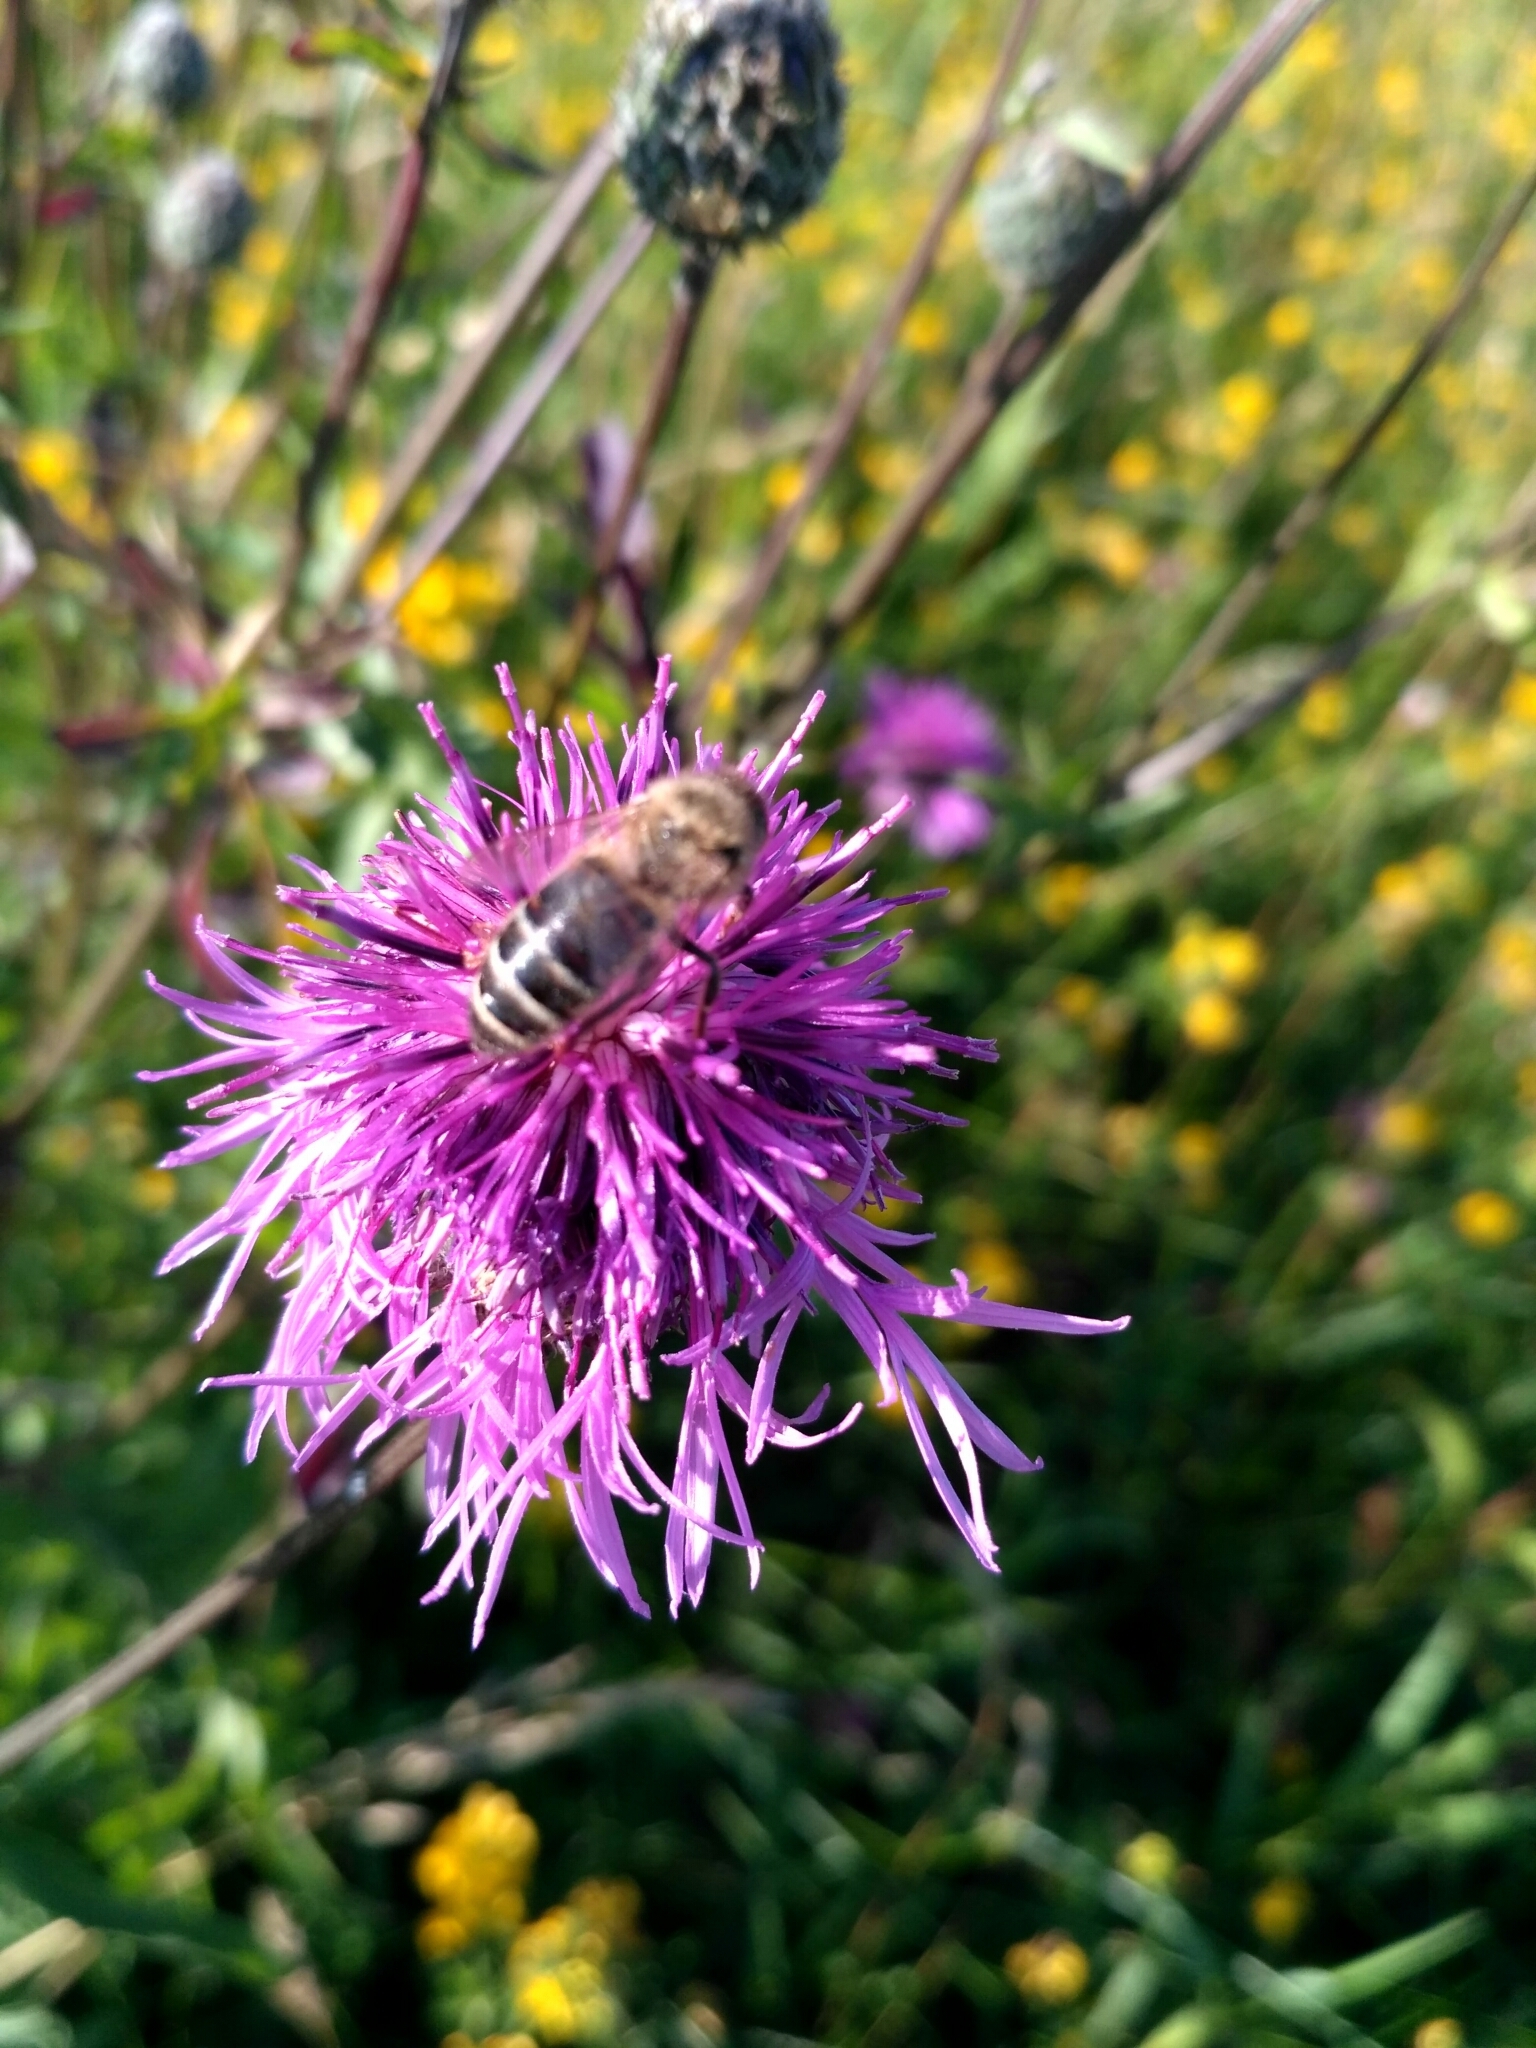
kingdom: Animalia
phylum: Arthropoda
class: Insecta
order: Hymenoptera
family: Apidae
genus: Apis
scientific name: Apis mellifera
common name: Honey bee
